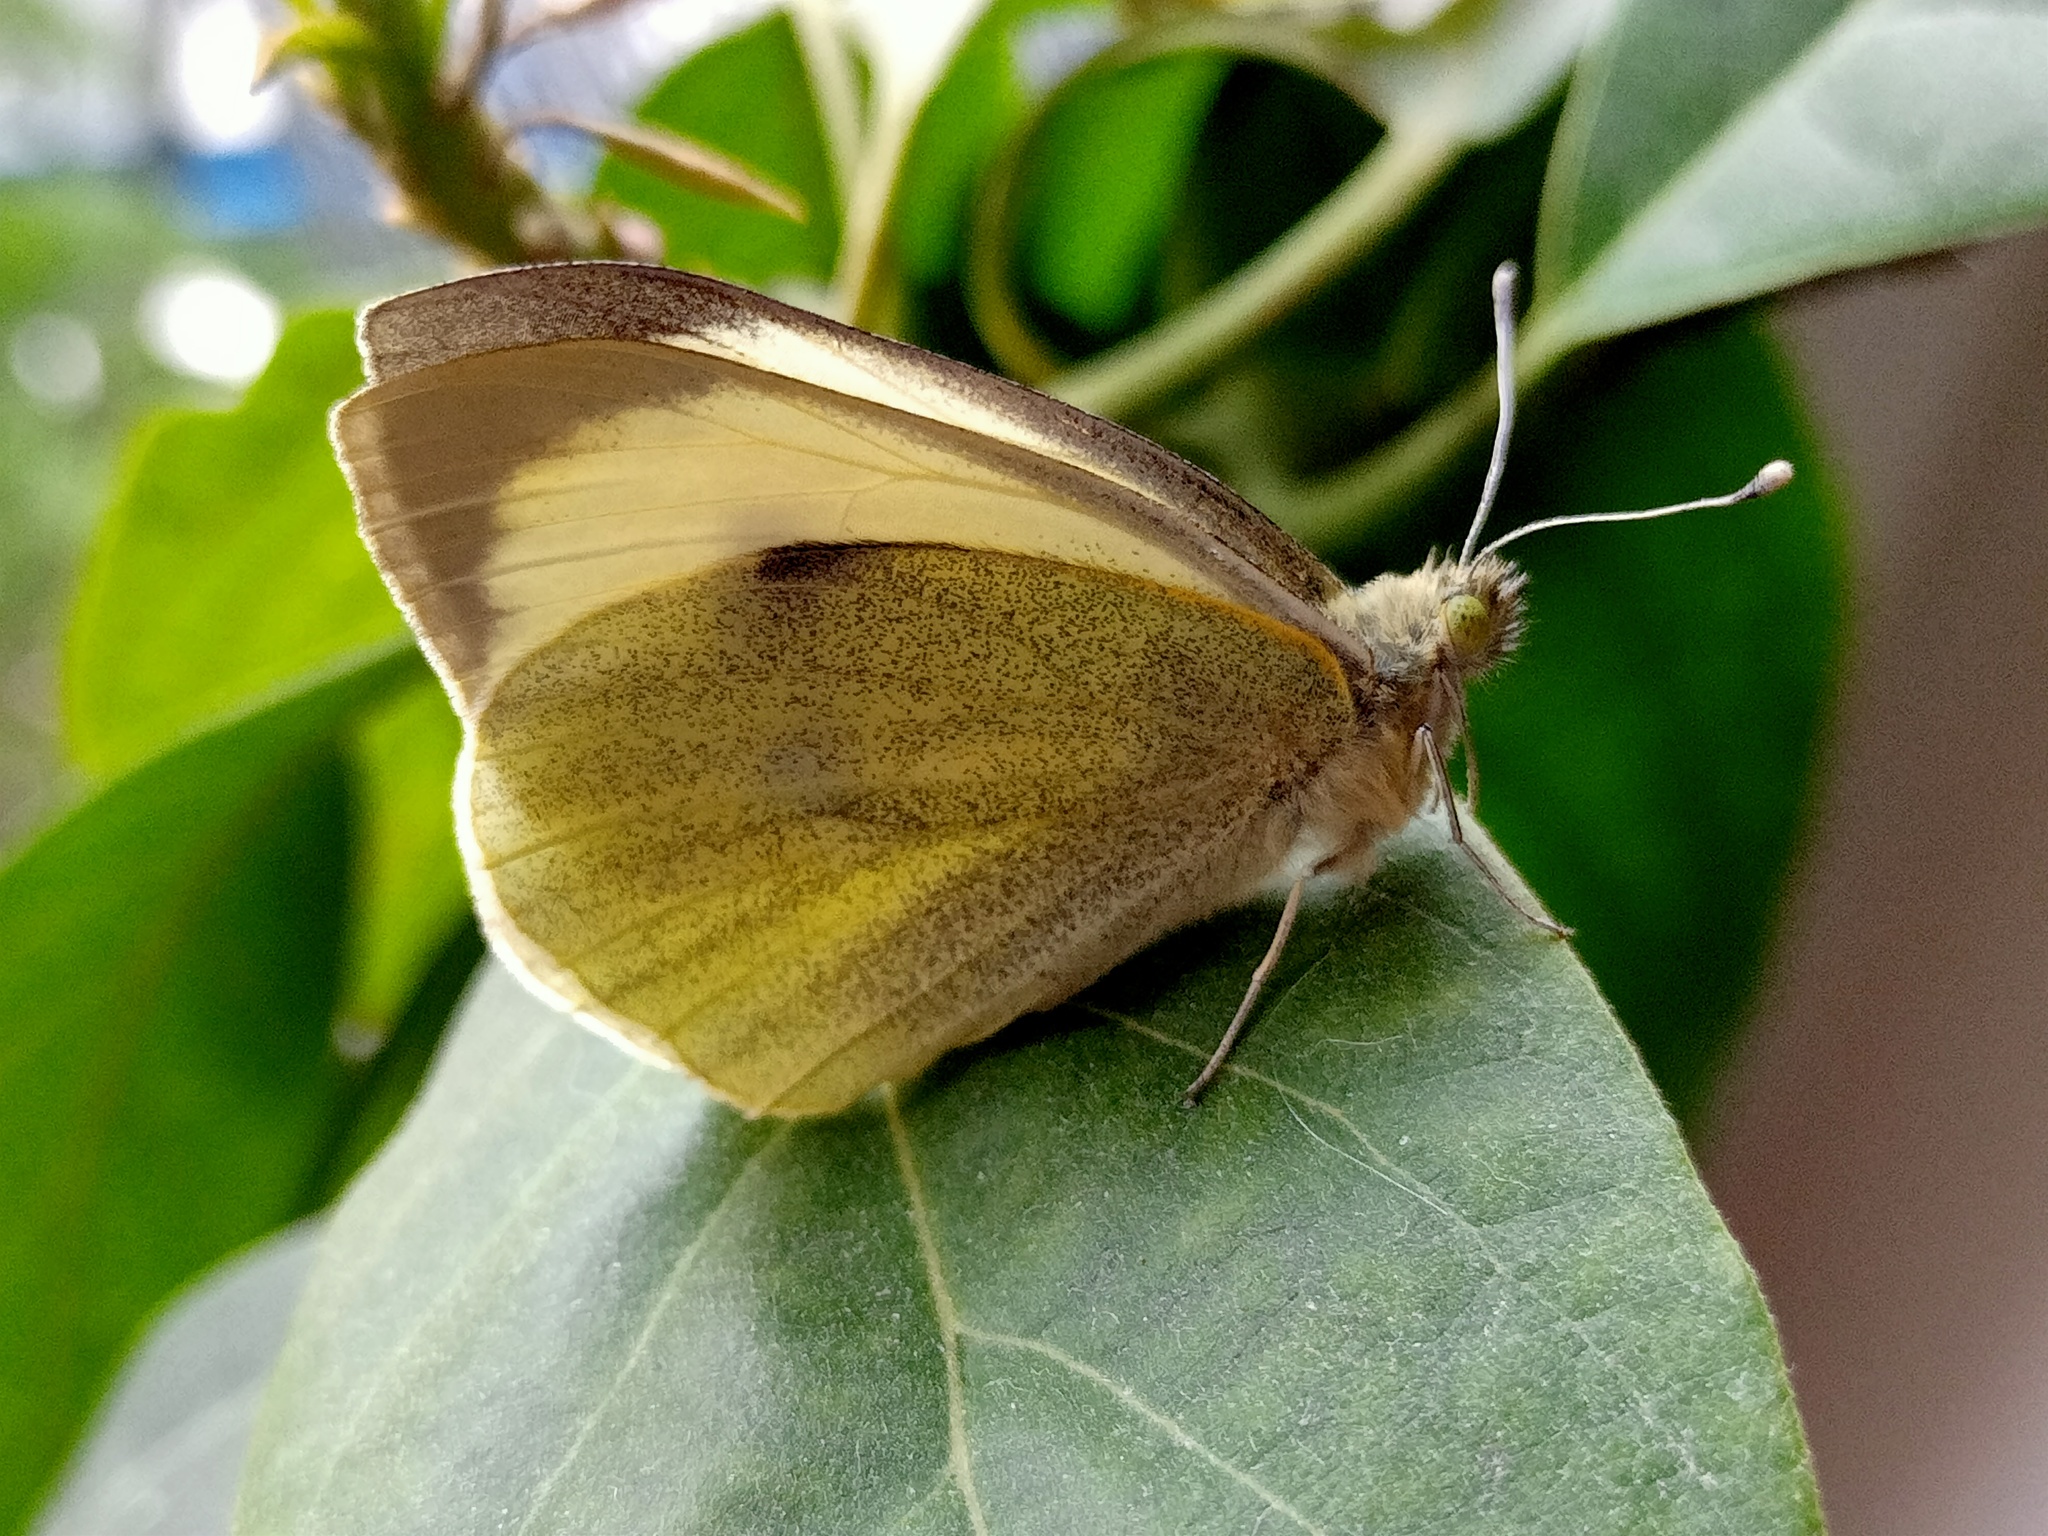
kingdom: Animalia
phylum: Arthropoda
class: Insecta
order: Lepidoptera
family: Pieridae
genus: Pieris
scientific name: Pieris brassicae
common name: Large white
